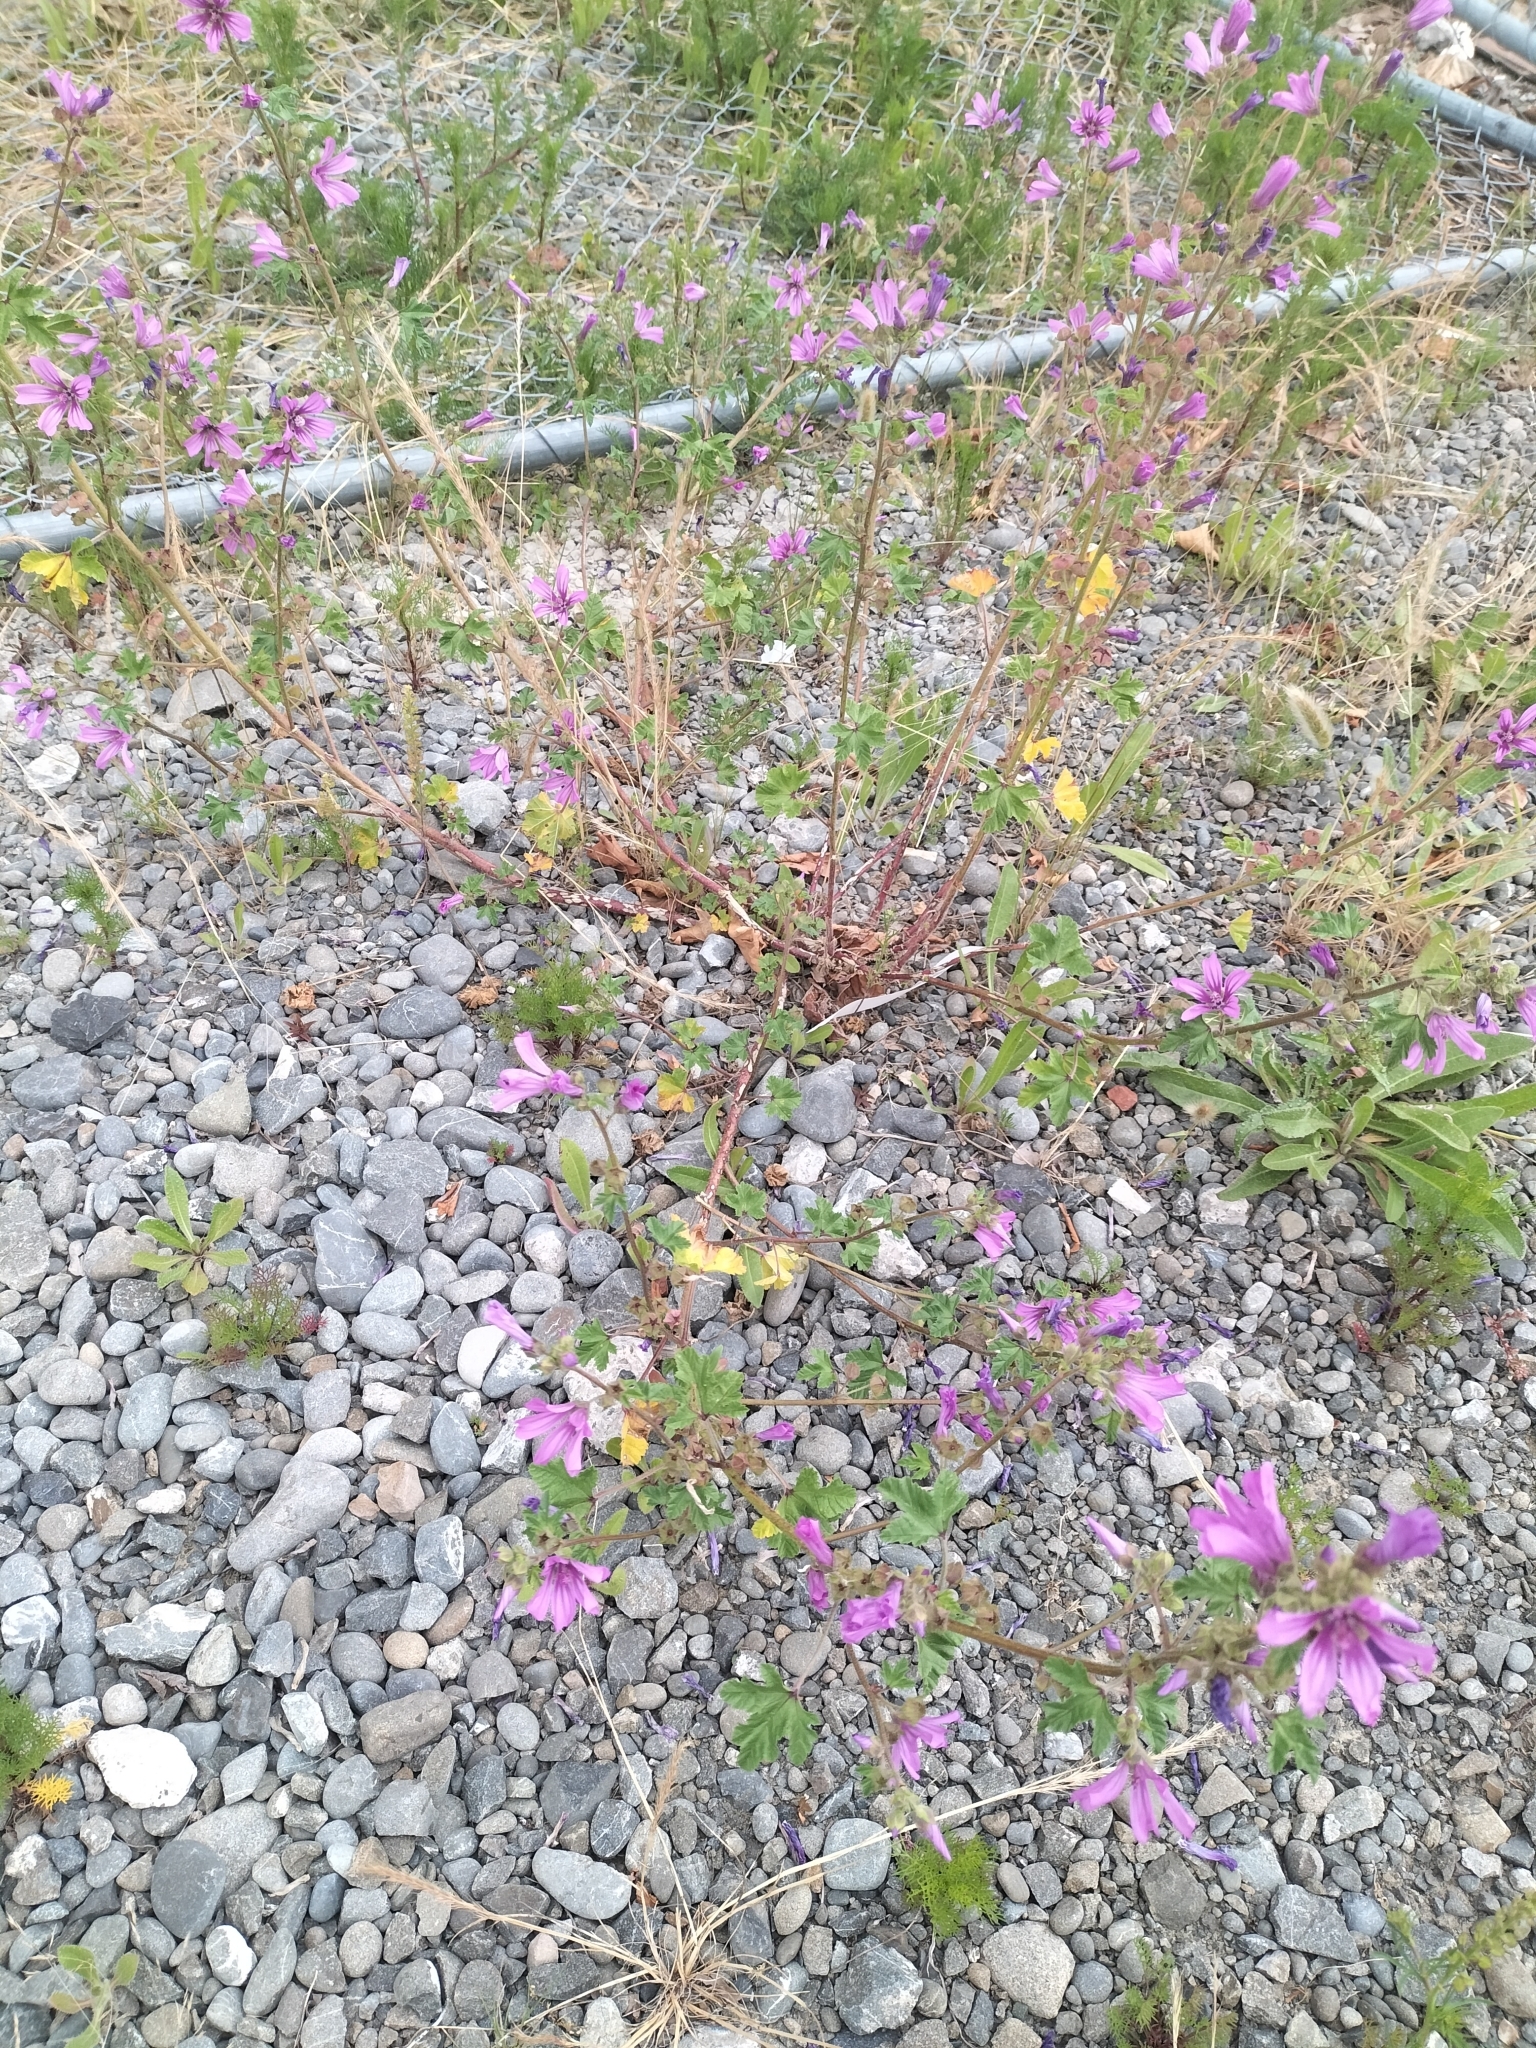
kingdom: Plantae
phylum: Tracheophyta
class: Magnoliopsida
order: Malvales
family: Malvaceae
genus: Malva
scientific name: Malva sylvestris
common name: Common mallow
